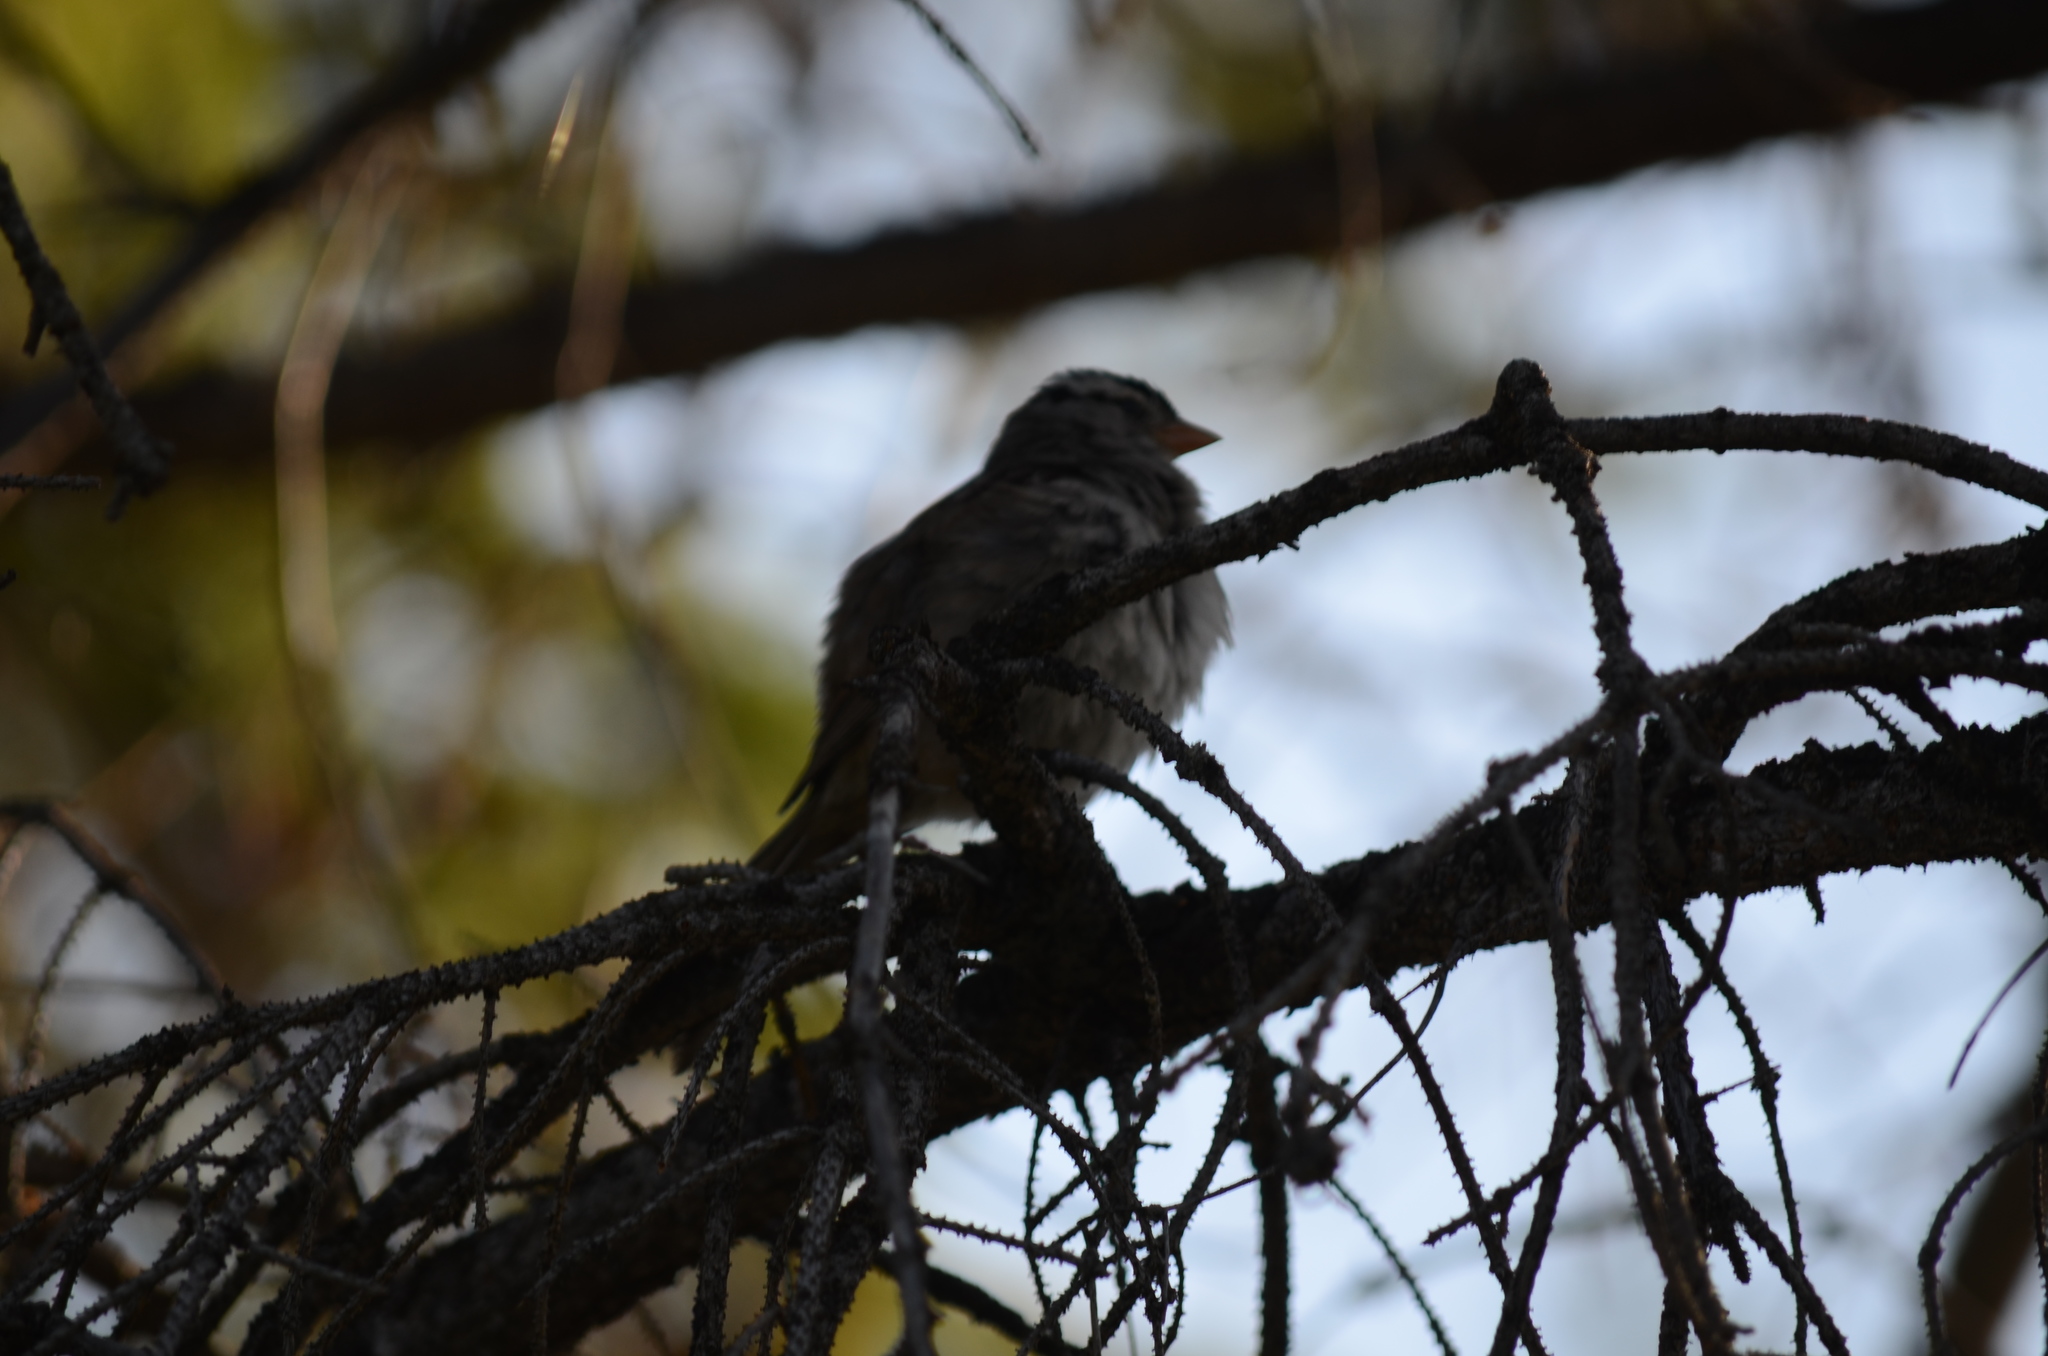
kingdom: Animalia
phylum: Chordata
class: Aves
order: Passeriformes
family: Passerellidae
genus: Zonotrichia
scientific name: Zonotrichia leucophrys
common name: White-crowned sparrow
